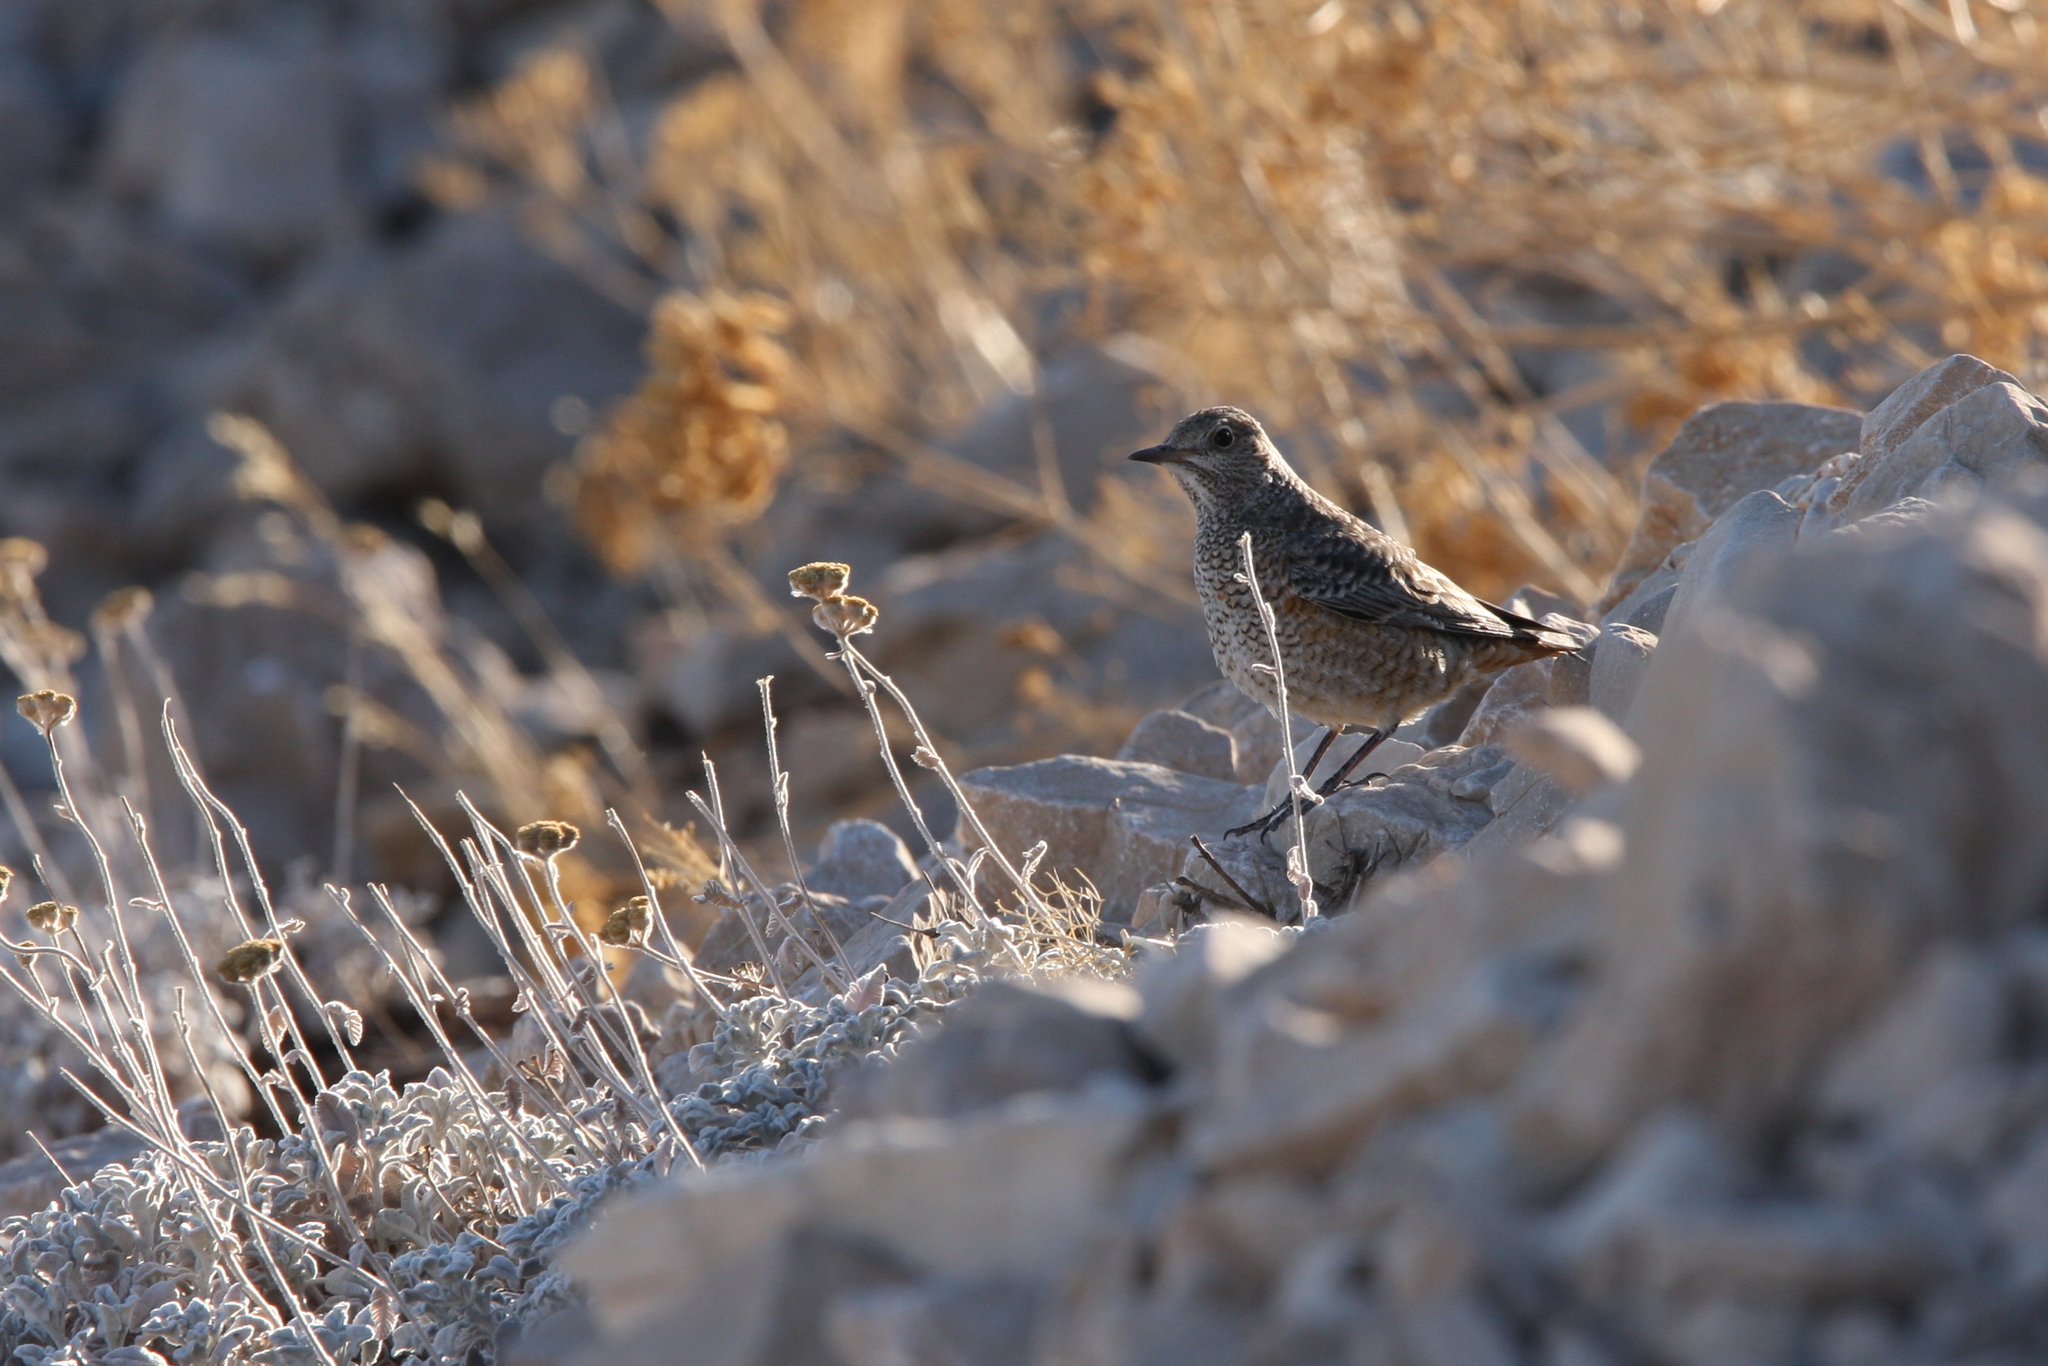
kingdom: Animalia
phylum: Chordata
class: Aves
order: Passeriformes
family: Muscicapidae
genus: Monticola
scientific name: Monticola saxatilis
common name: Rufous-tailed rock thrush
